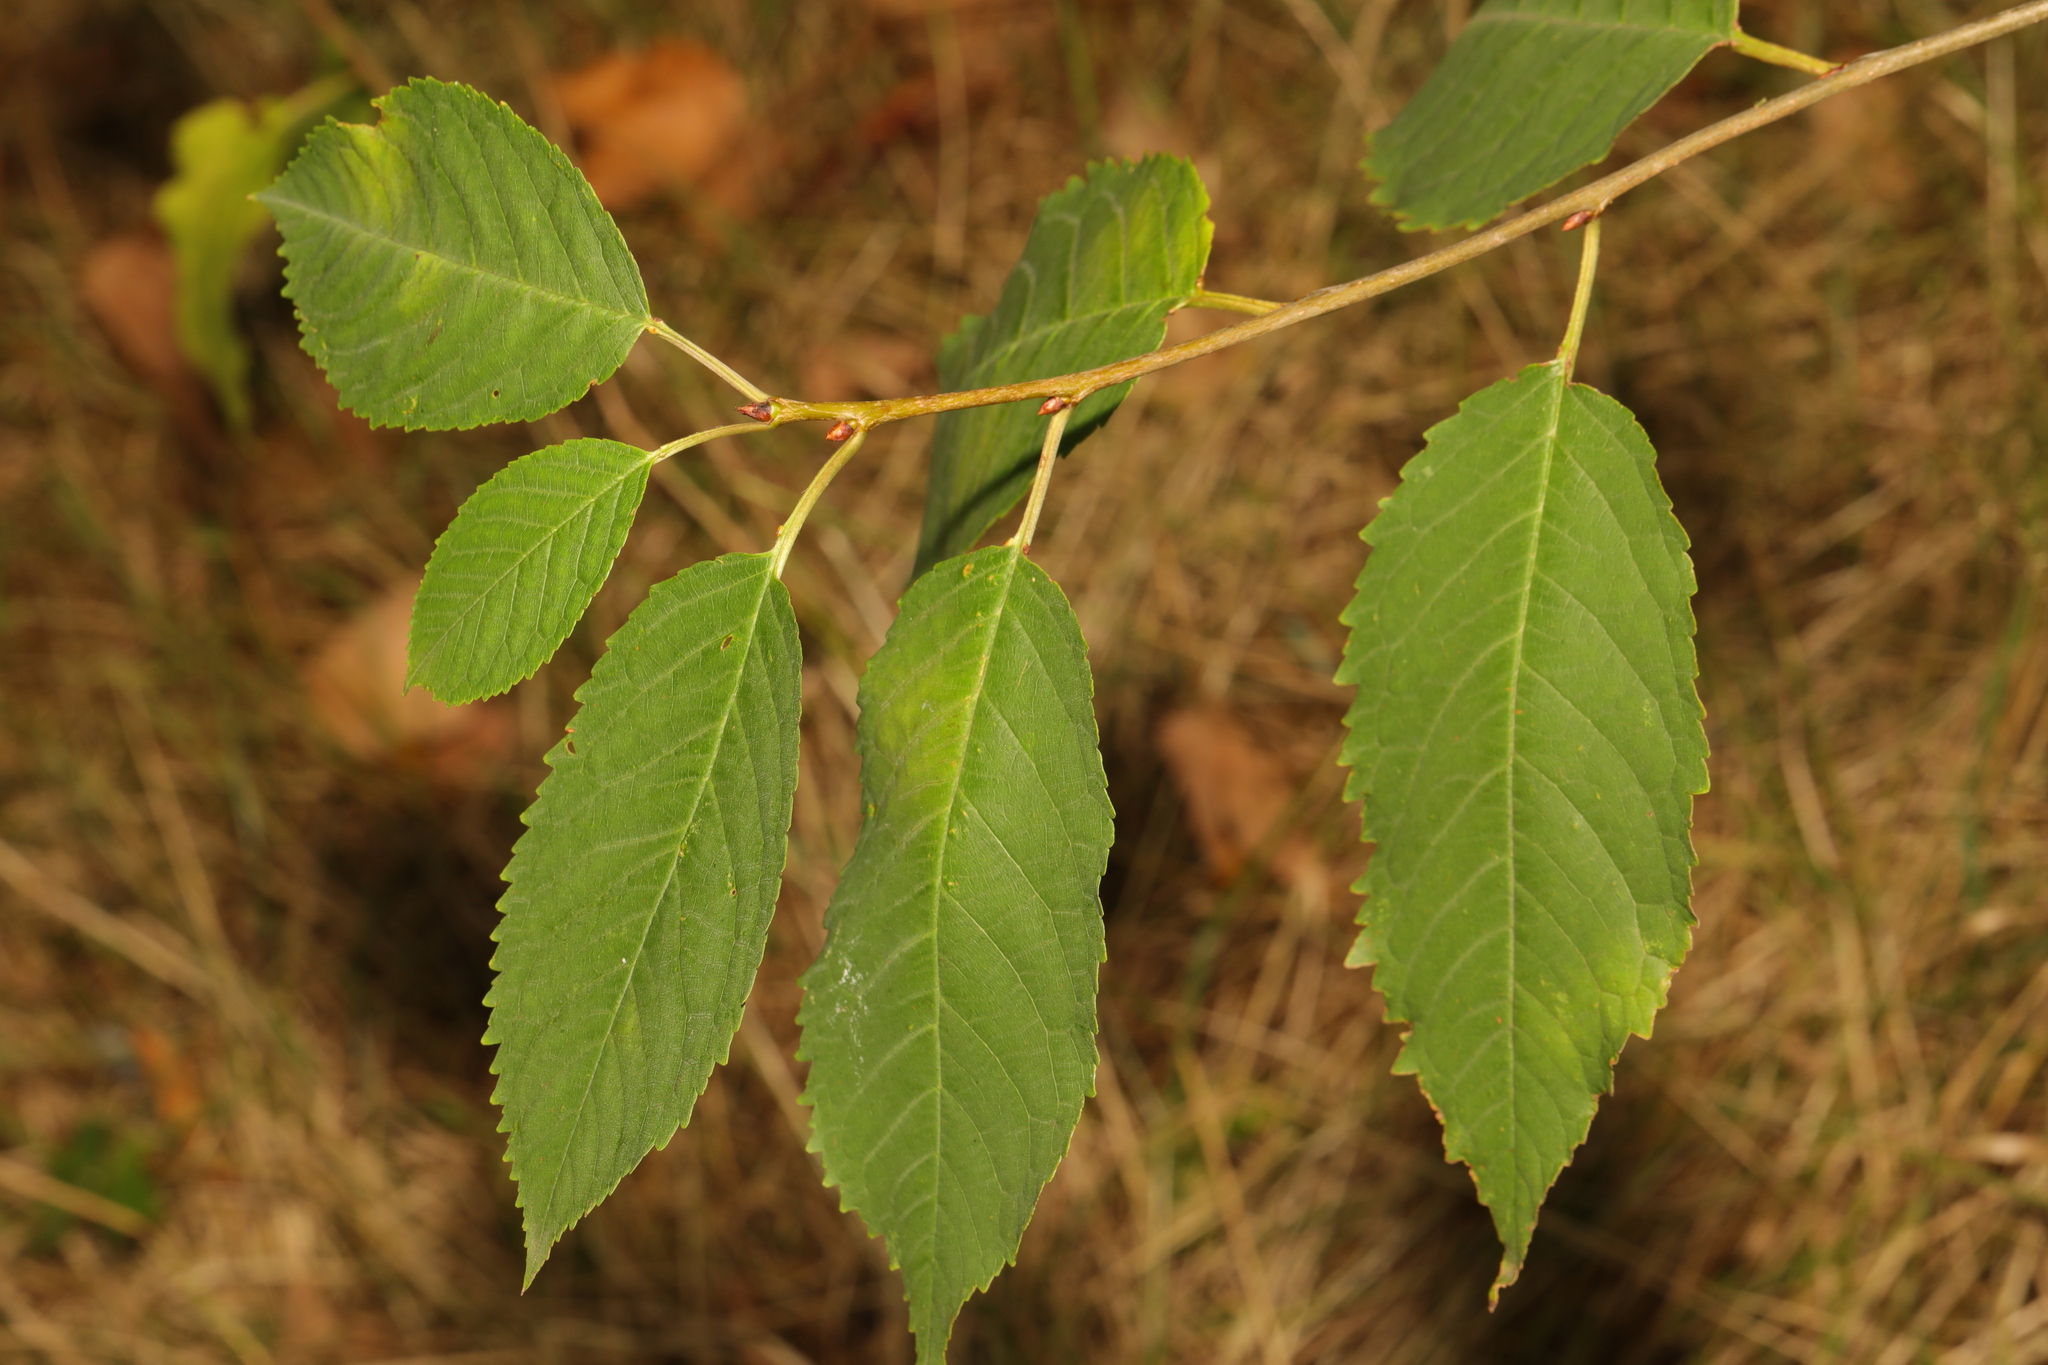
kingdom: Plantae
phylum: Tracheophyta
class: Magnoliopsida
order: Rosales
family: Rosaceae
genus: Prunus
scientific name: Prunus avium
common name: Sweet cherry
